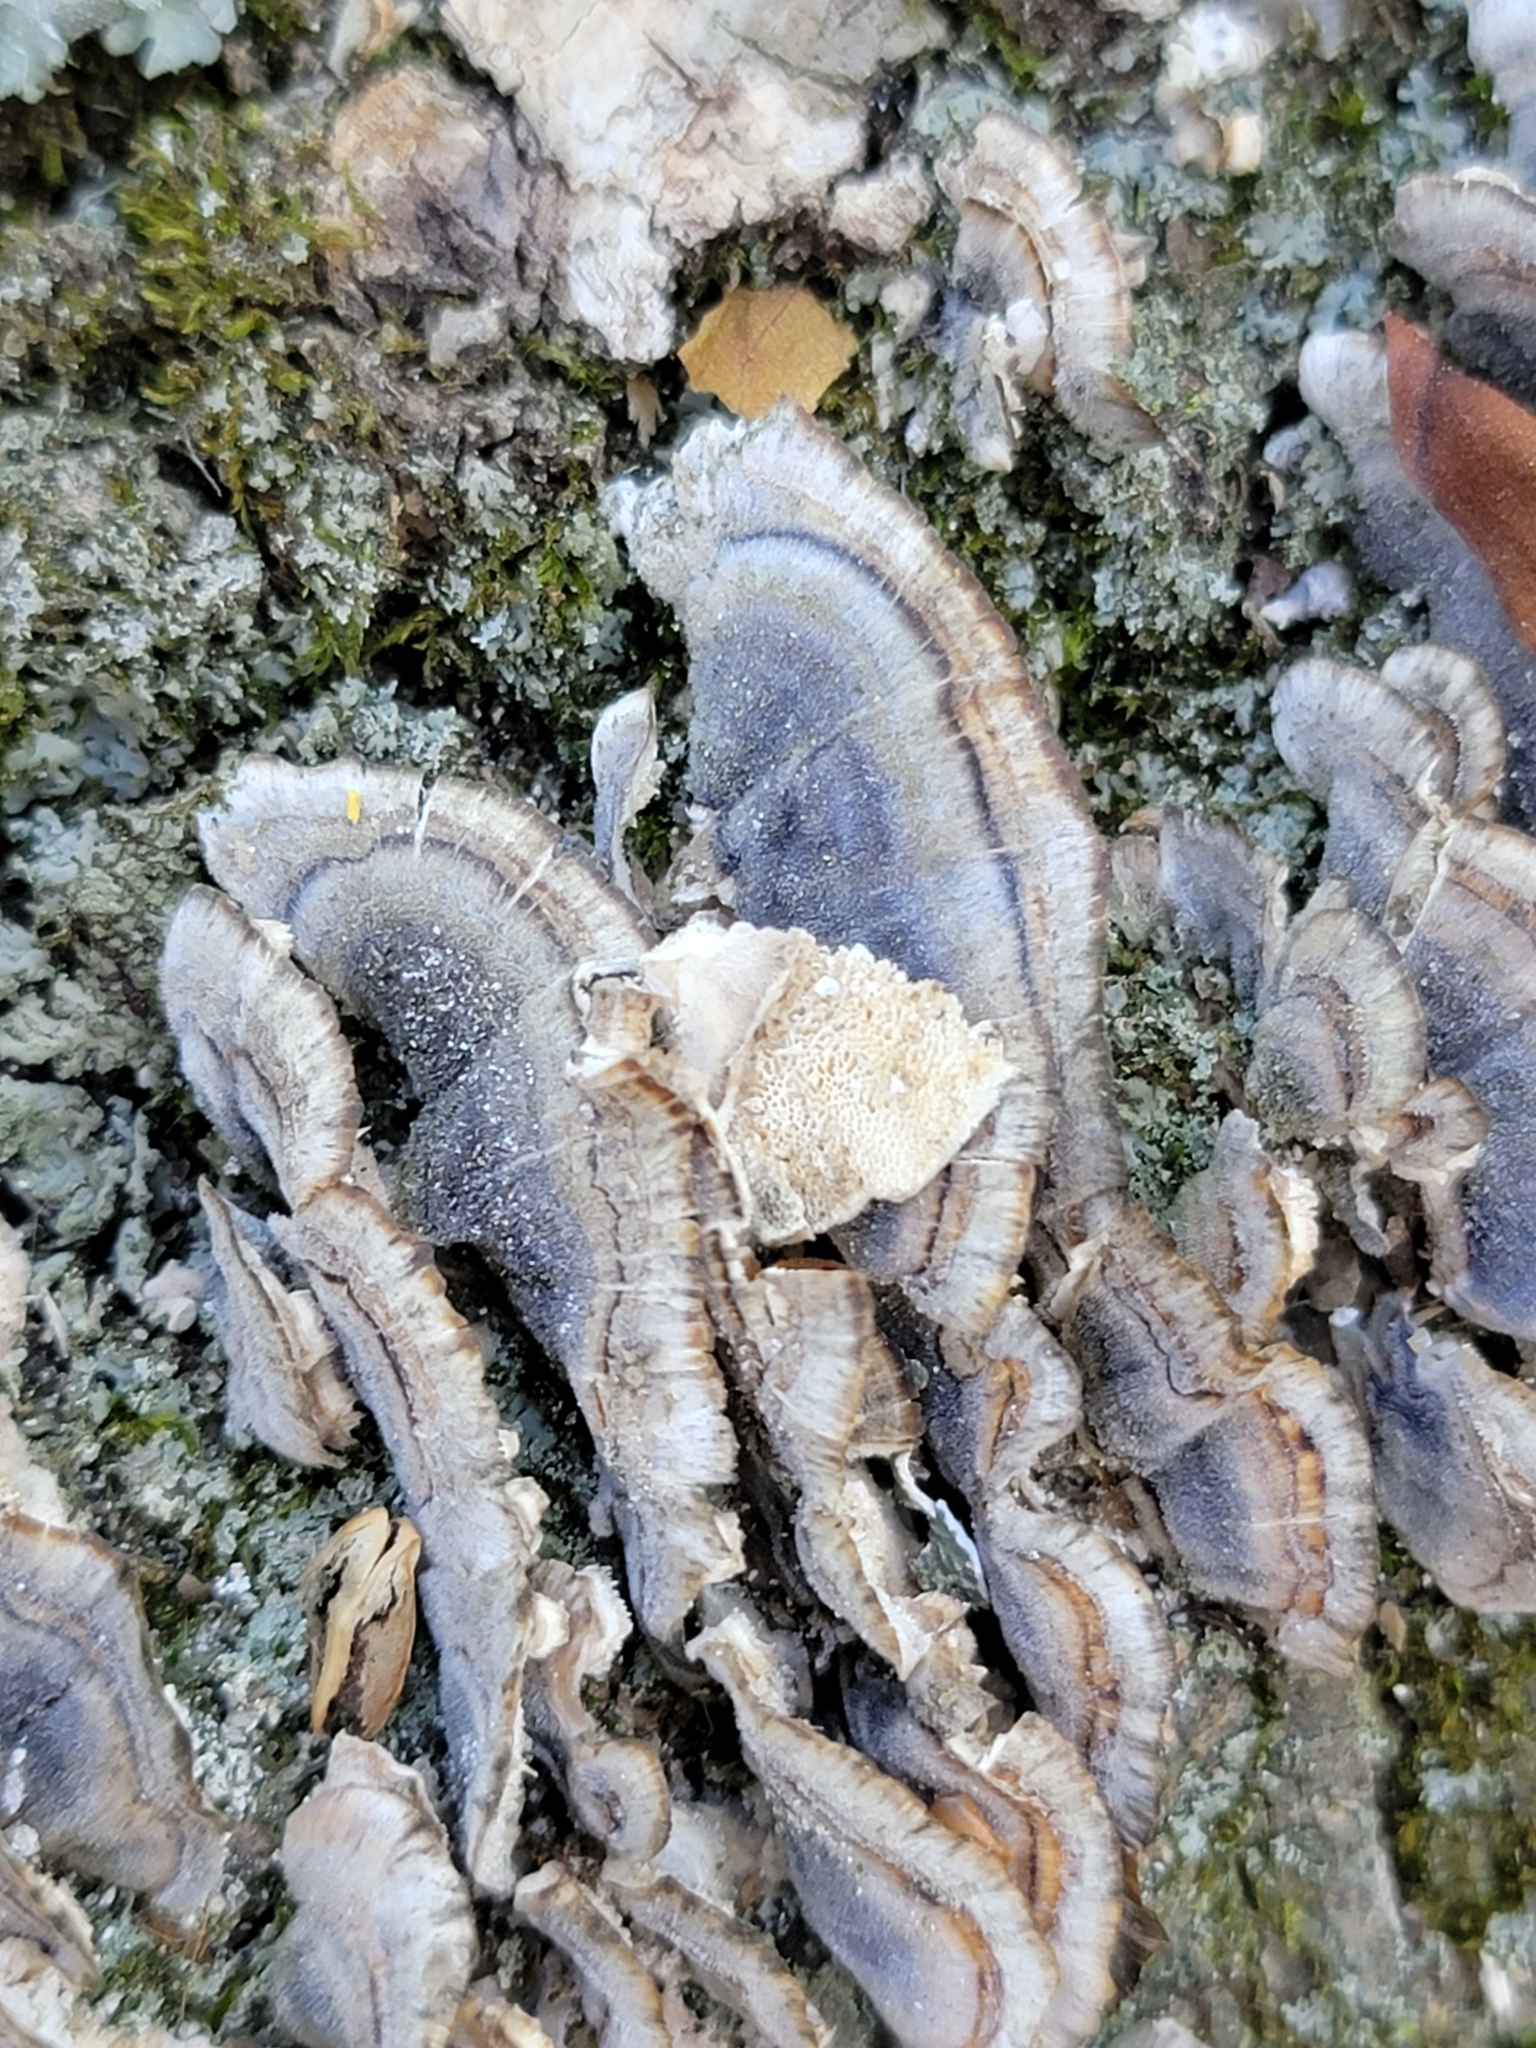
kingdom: Fungi
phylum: Basidiomycota
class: Agaricomycetes
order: Polyporales
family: Polyporaceae
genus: Trametes
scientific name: Trametes versicolor
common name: Turkeytail
